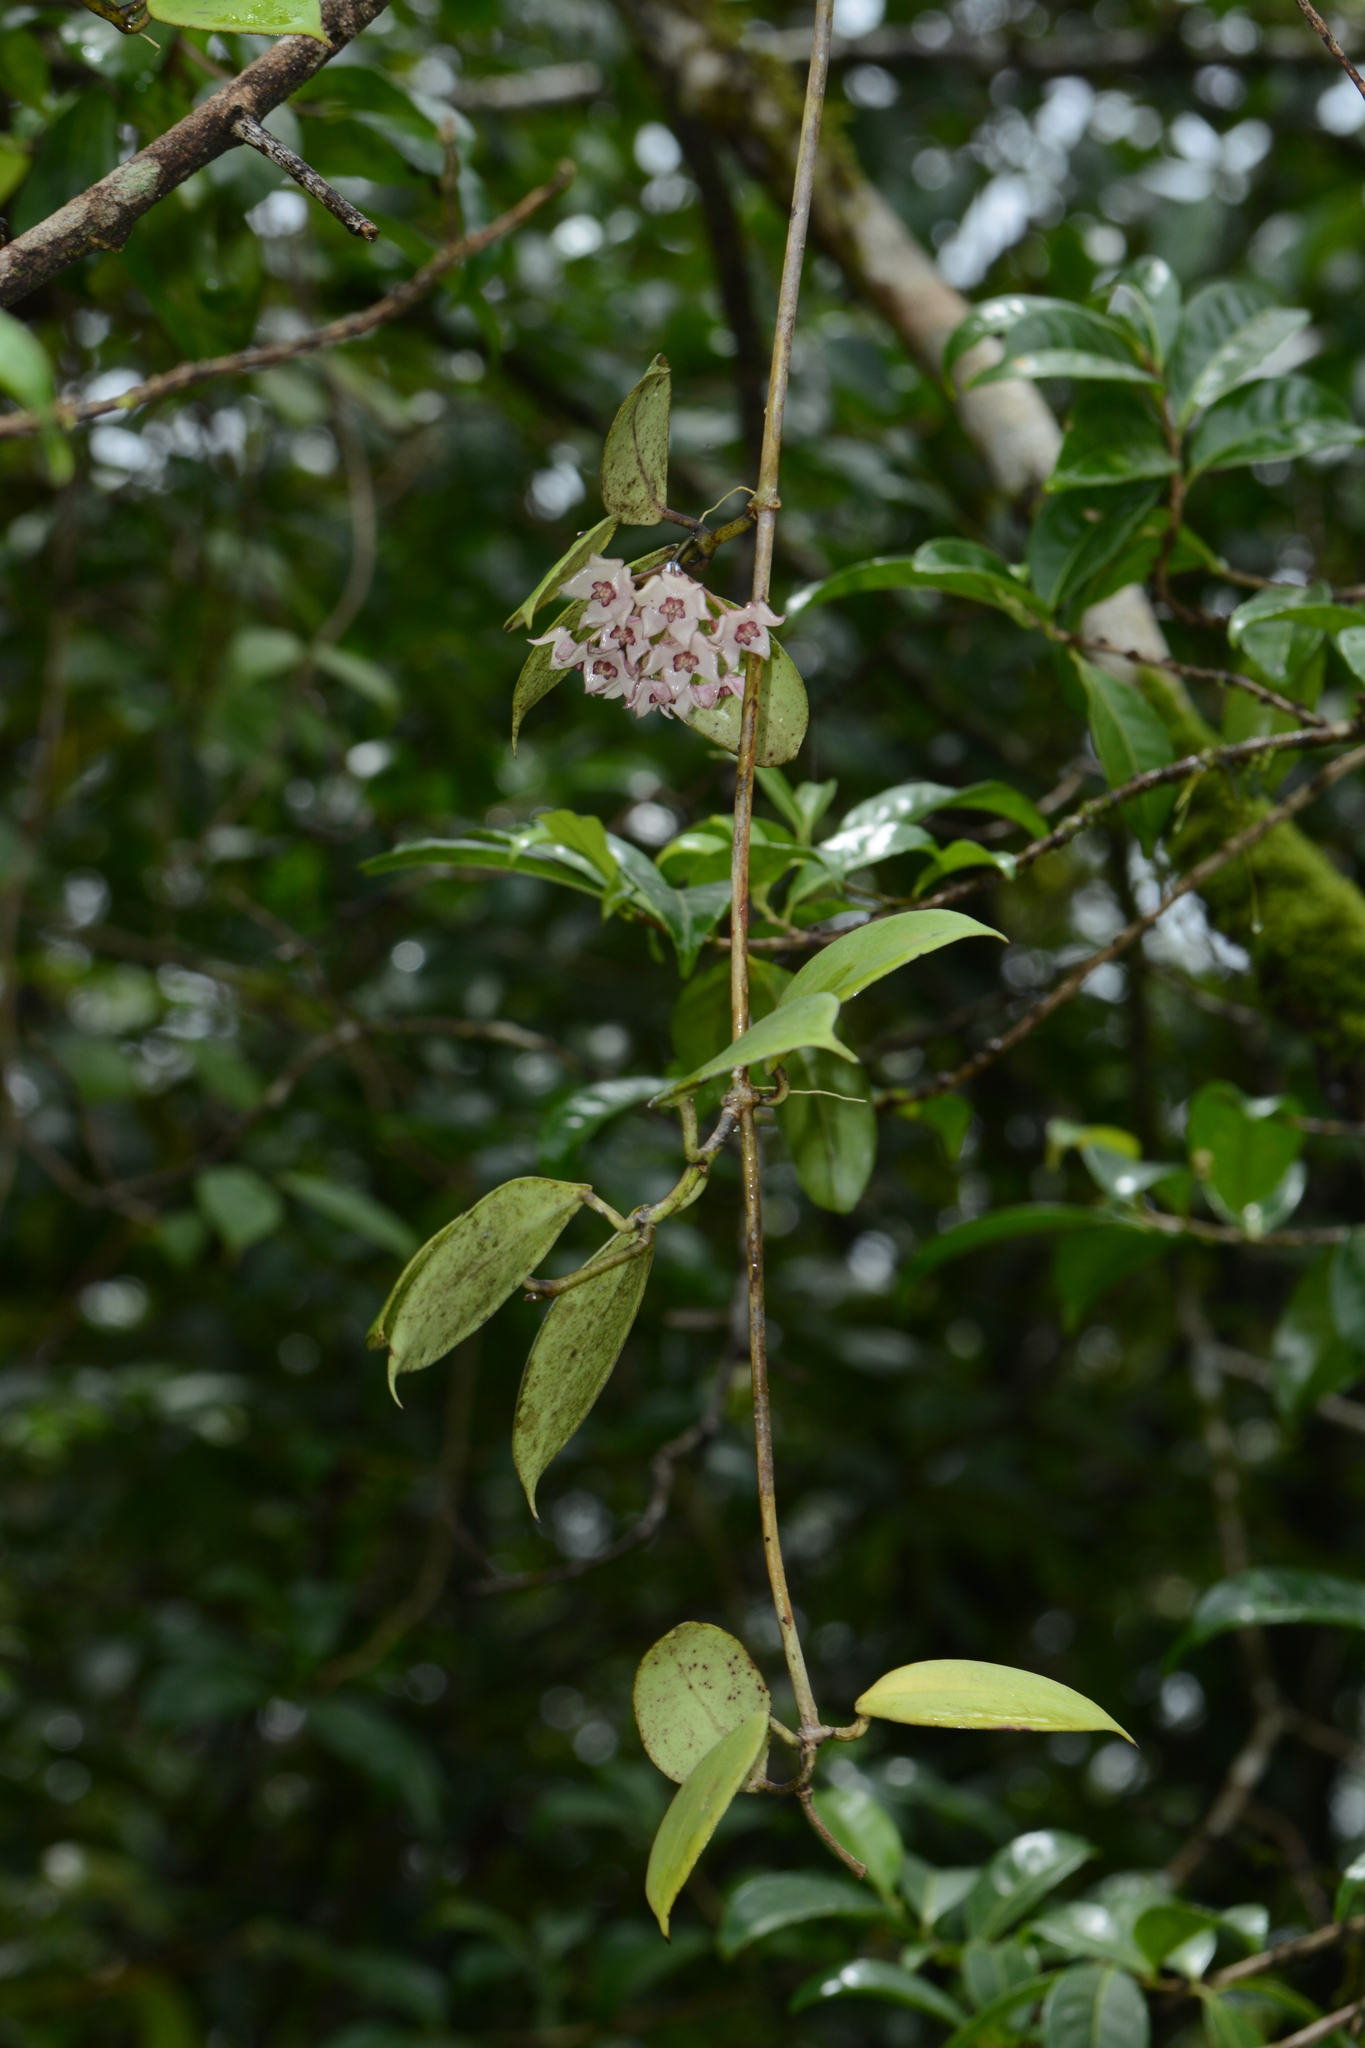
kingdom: Plantae
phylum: Tracheophyta
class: Magnoliopsida
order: Gentianales
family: Apocynaceae
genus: Hoya
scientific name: Hoya wightii
